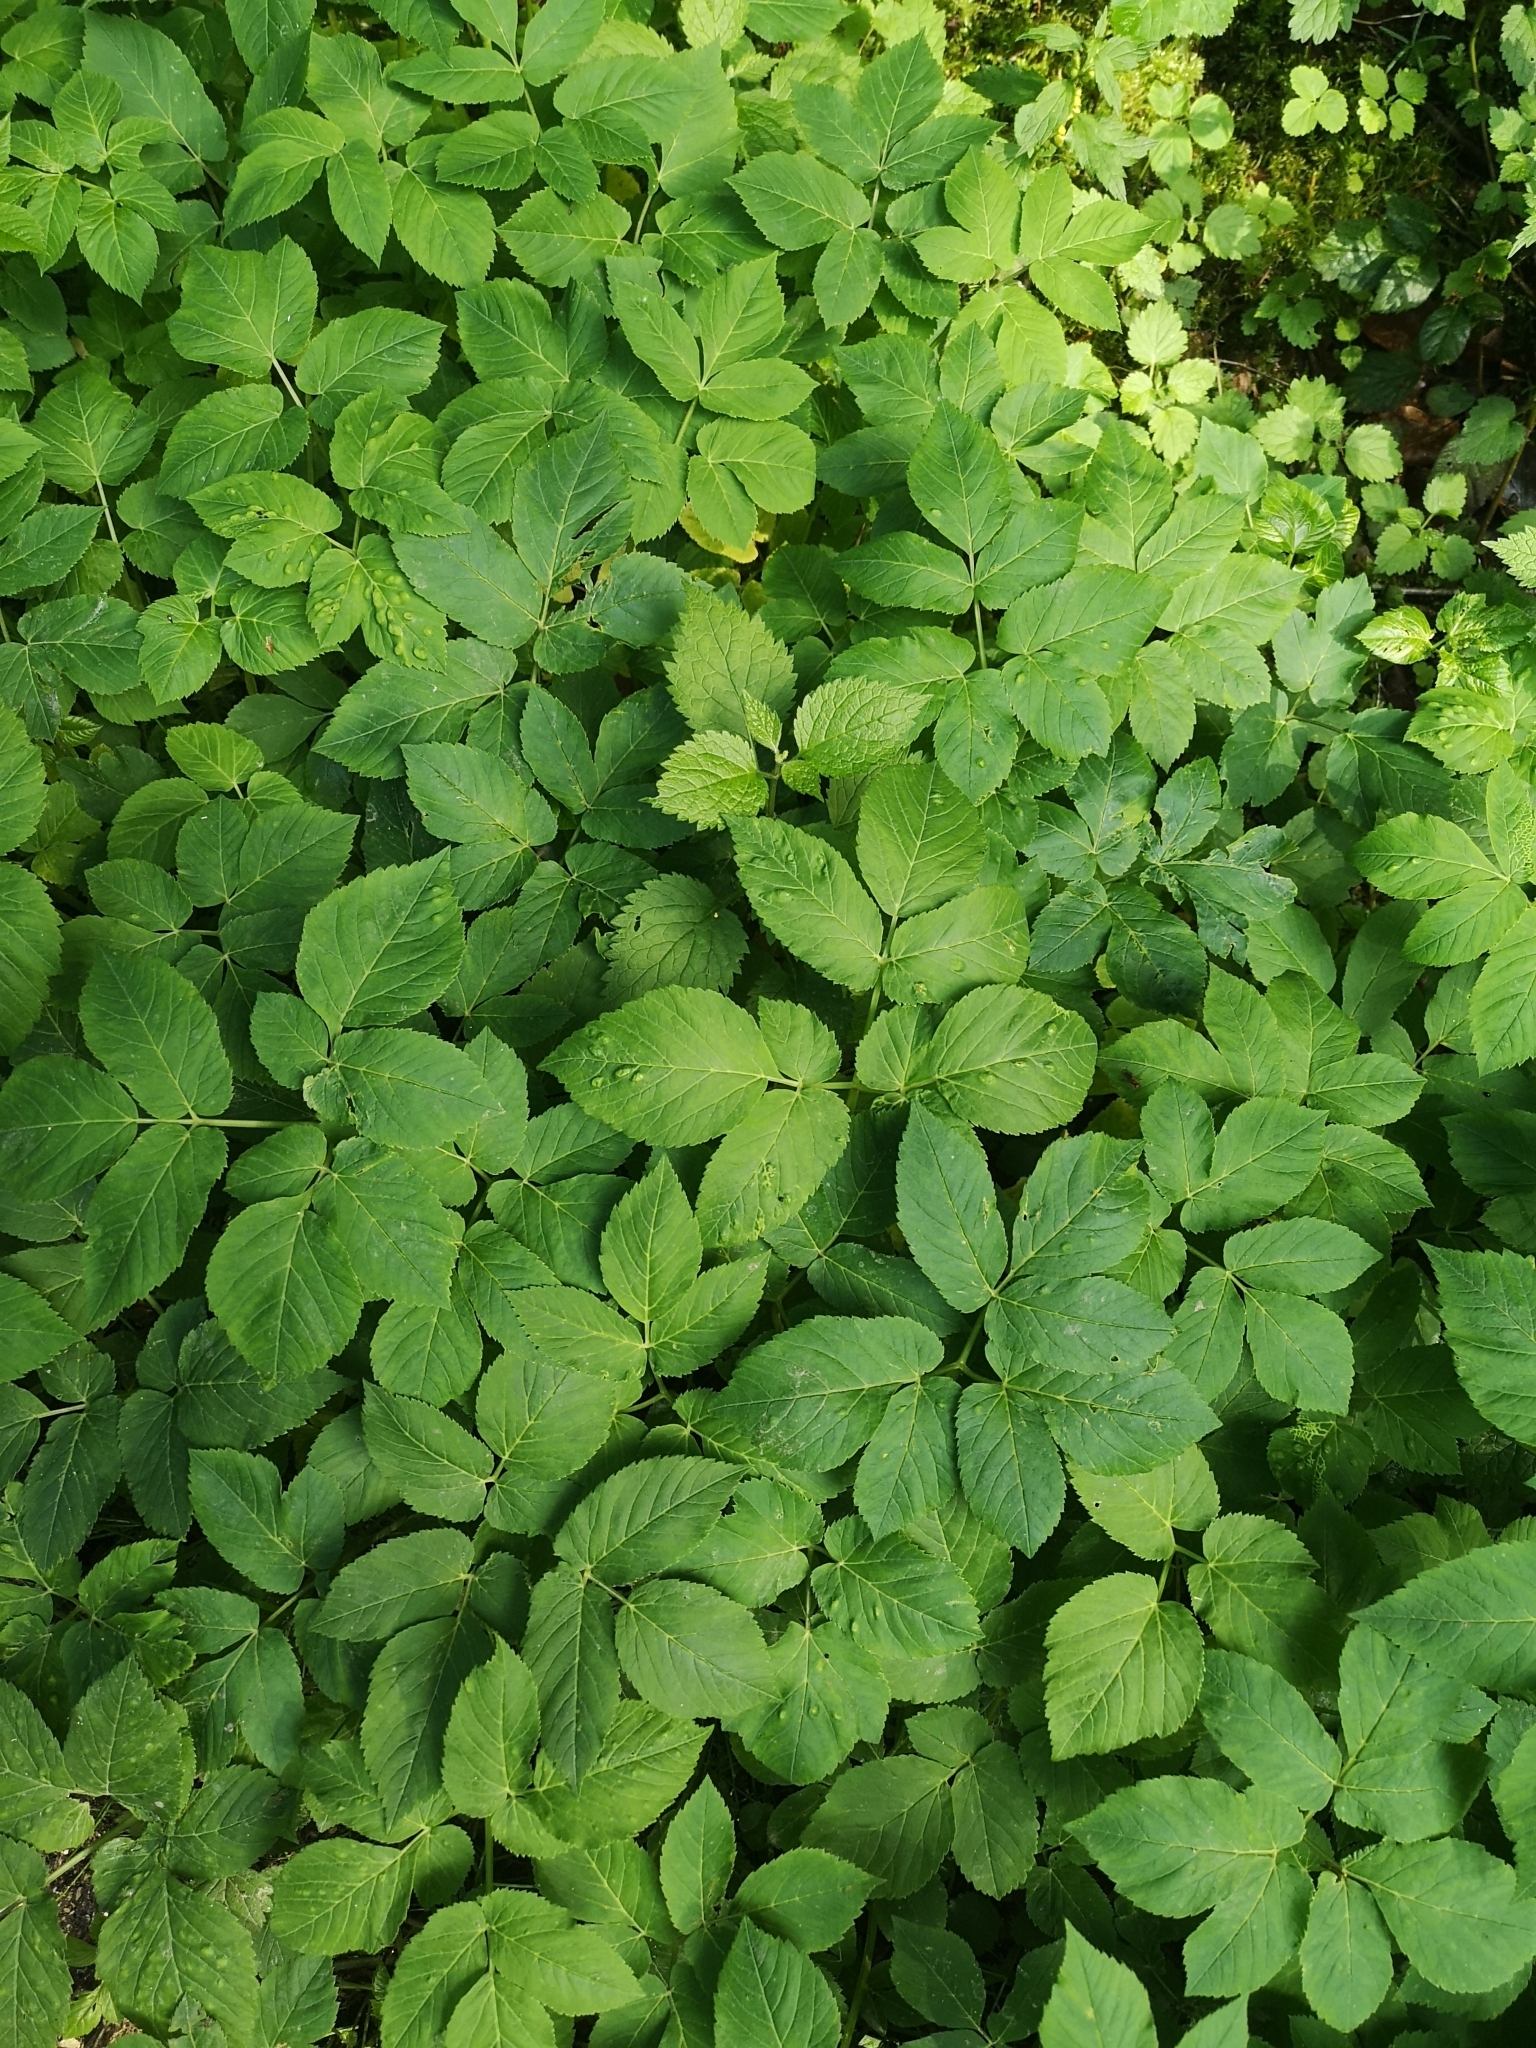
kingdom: Plantae
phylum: Tracheophyta
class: Magnoliopsida
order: Apiales
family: Apiaceae
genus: Aegopodium
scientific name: Aegopodium podagraria
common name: Ground-elder
